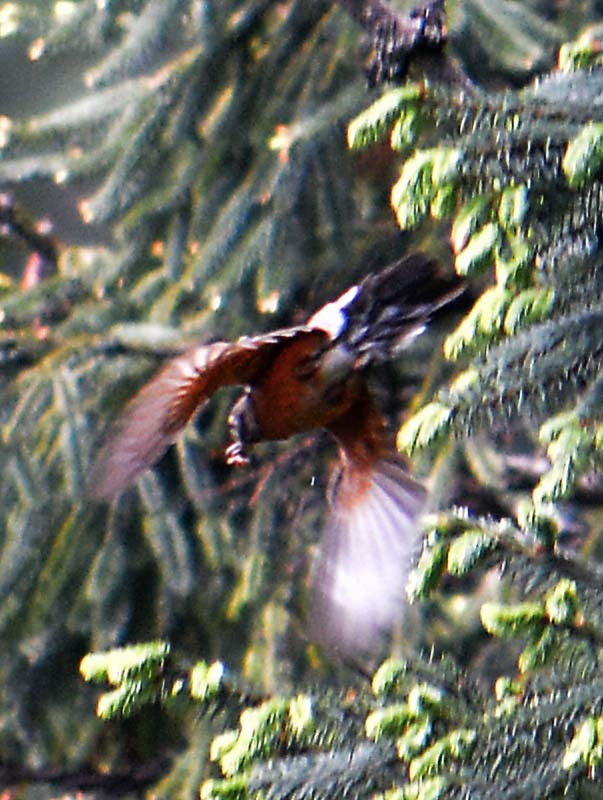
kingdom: Animalia
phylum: Chordata
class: Aves
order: Passeriformes
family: Turdidae
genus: Turdus
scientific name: Turdus migratorius
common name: American robin
